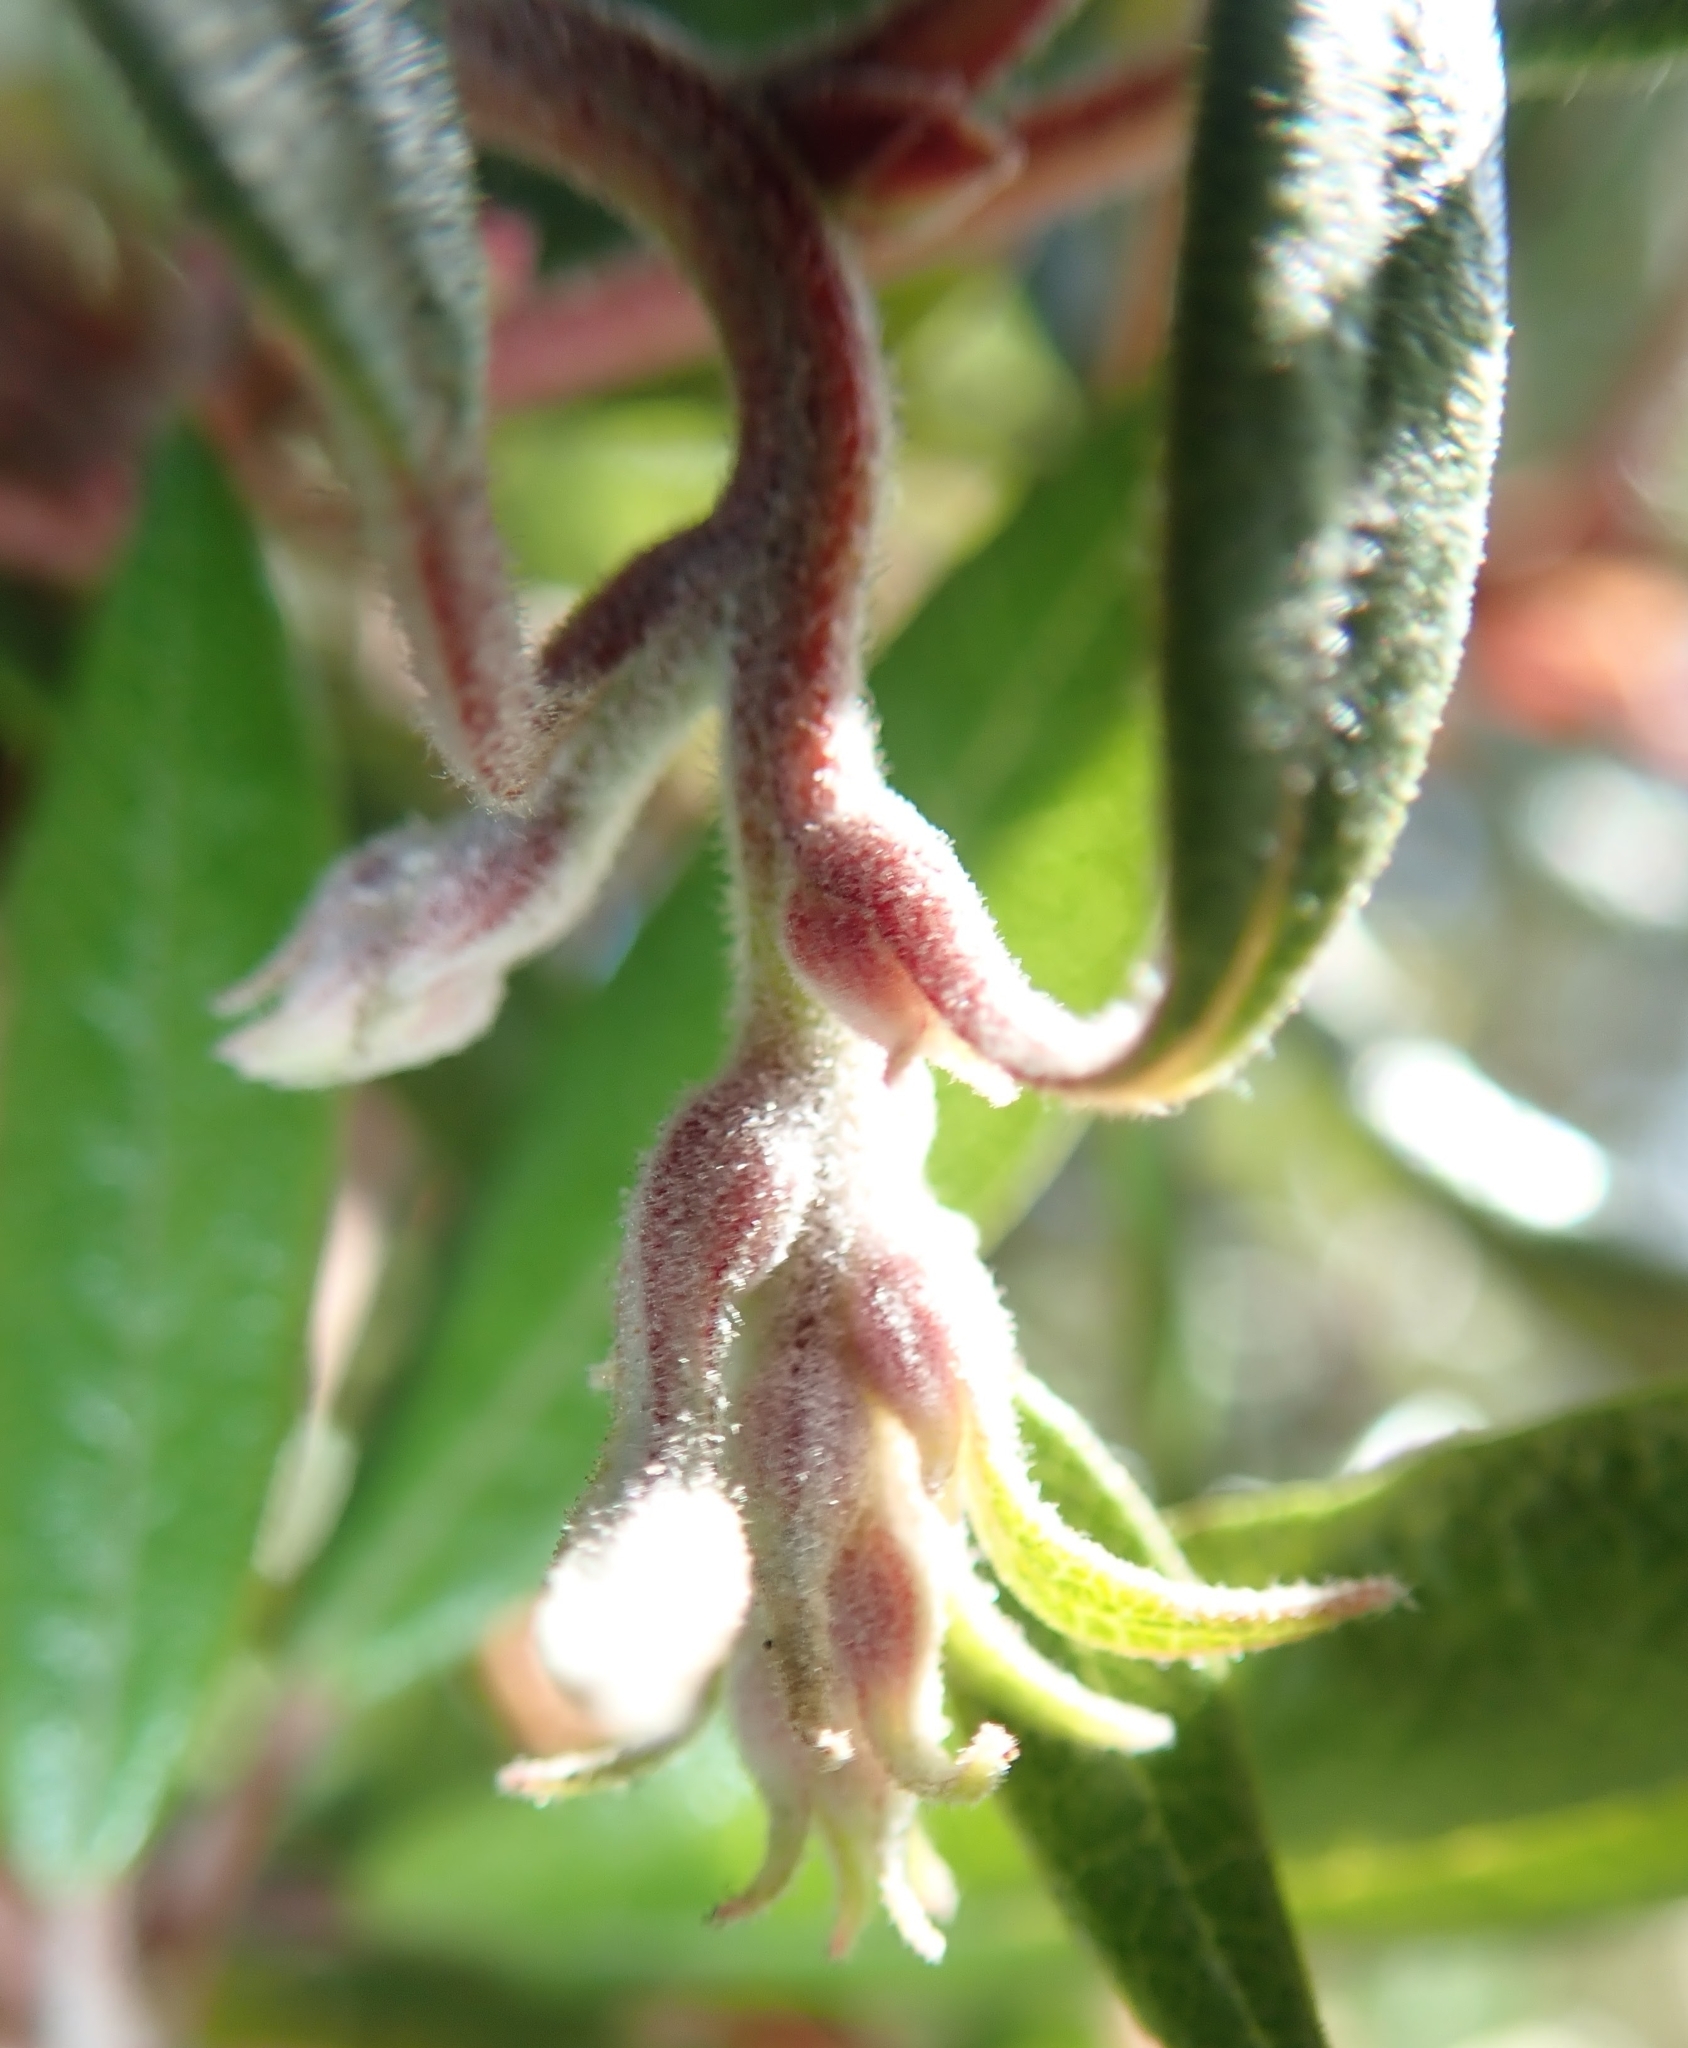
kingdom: Plantae
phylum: Tracheophyta
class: Magnoliopsida
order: Ericales
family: Ericaceae
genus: Arctostaphylos
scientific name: Arctostaphylos bicolor
